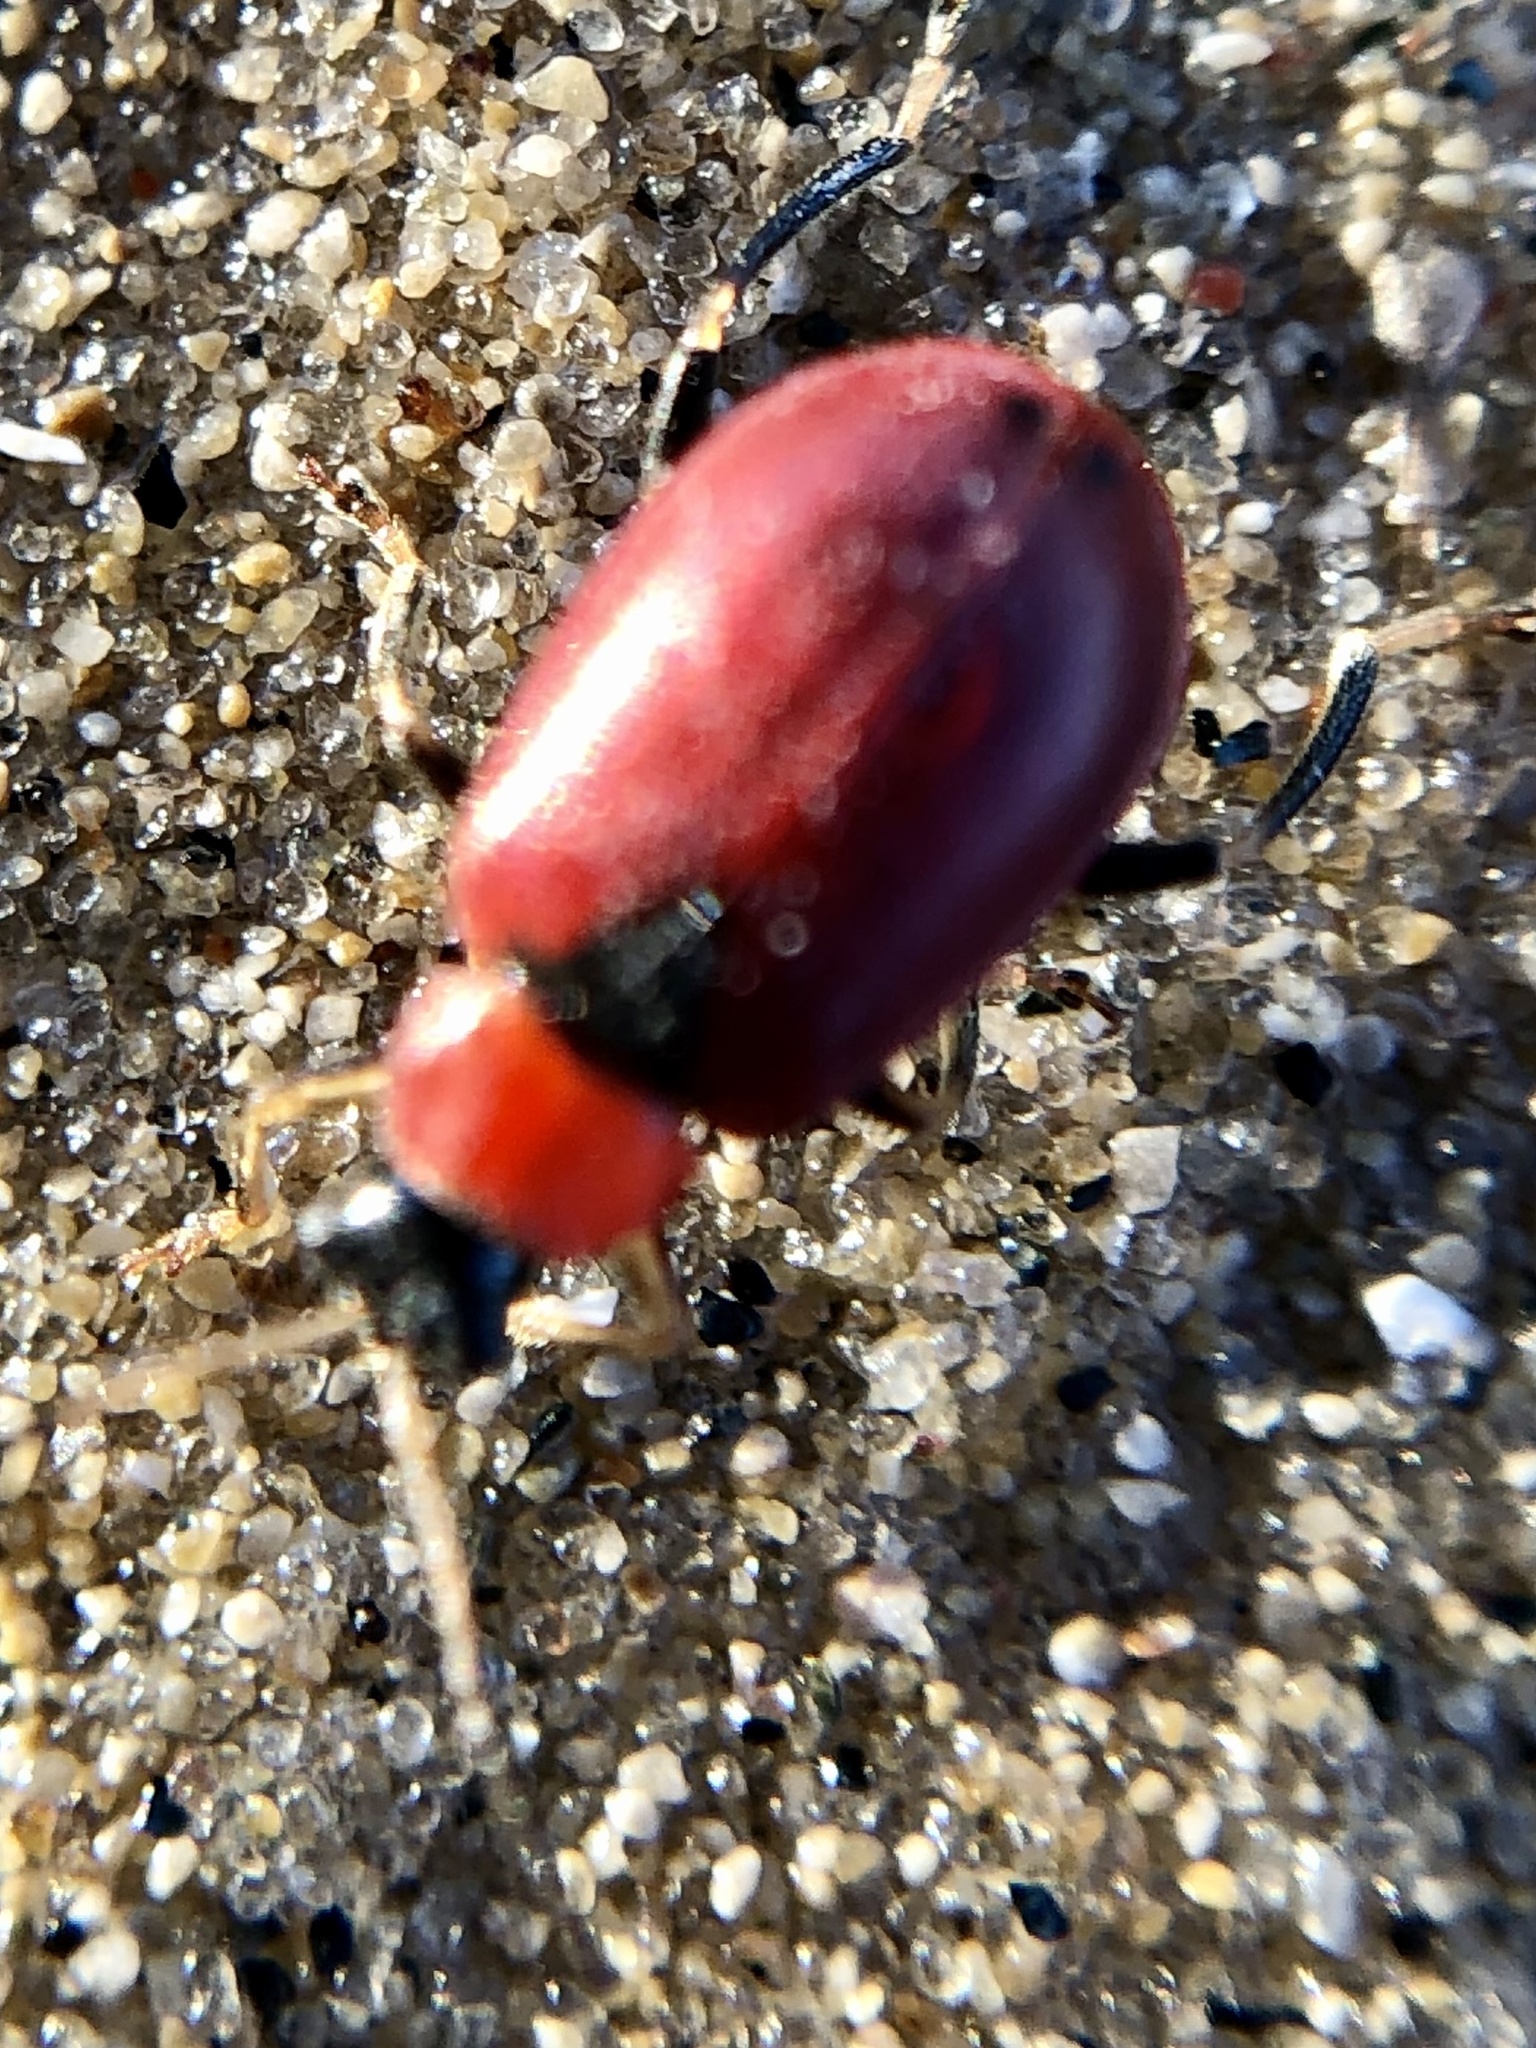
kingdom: Animalia
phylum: Arthropoda
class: Insecta
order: Coleoptera
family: Chrysomelidae
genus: Lilioceris
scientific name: Lilioceris lilii
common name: Lily beetle
